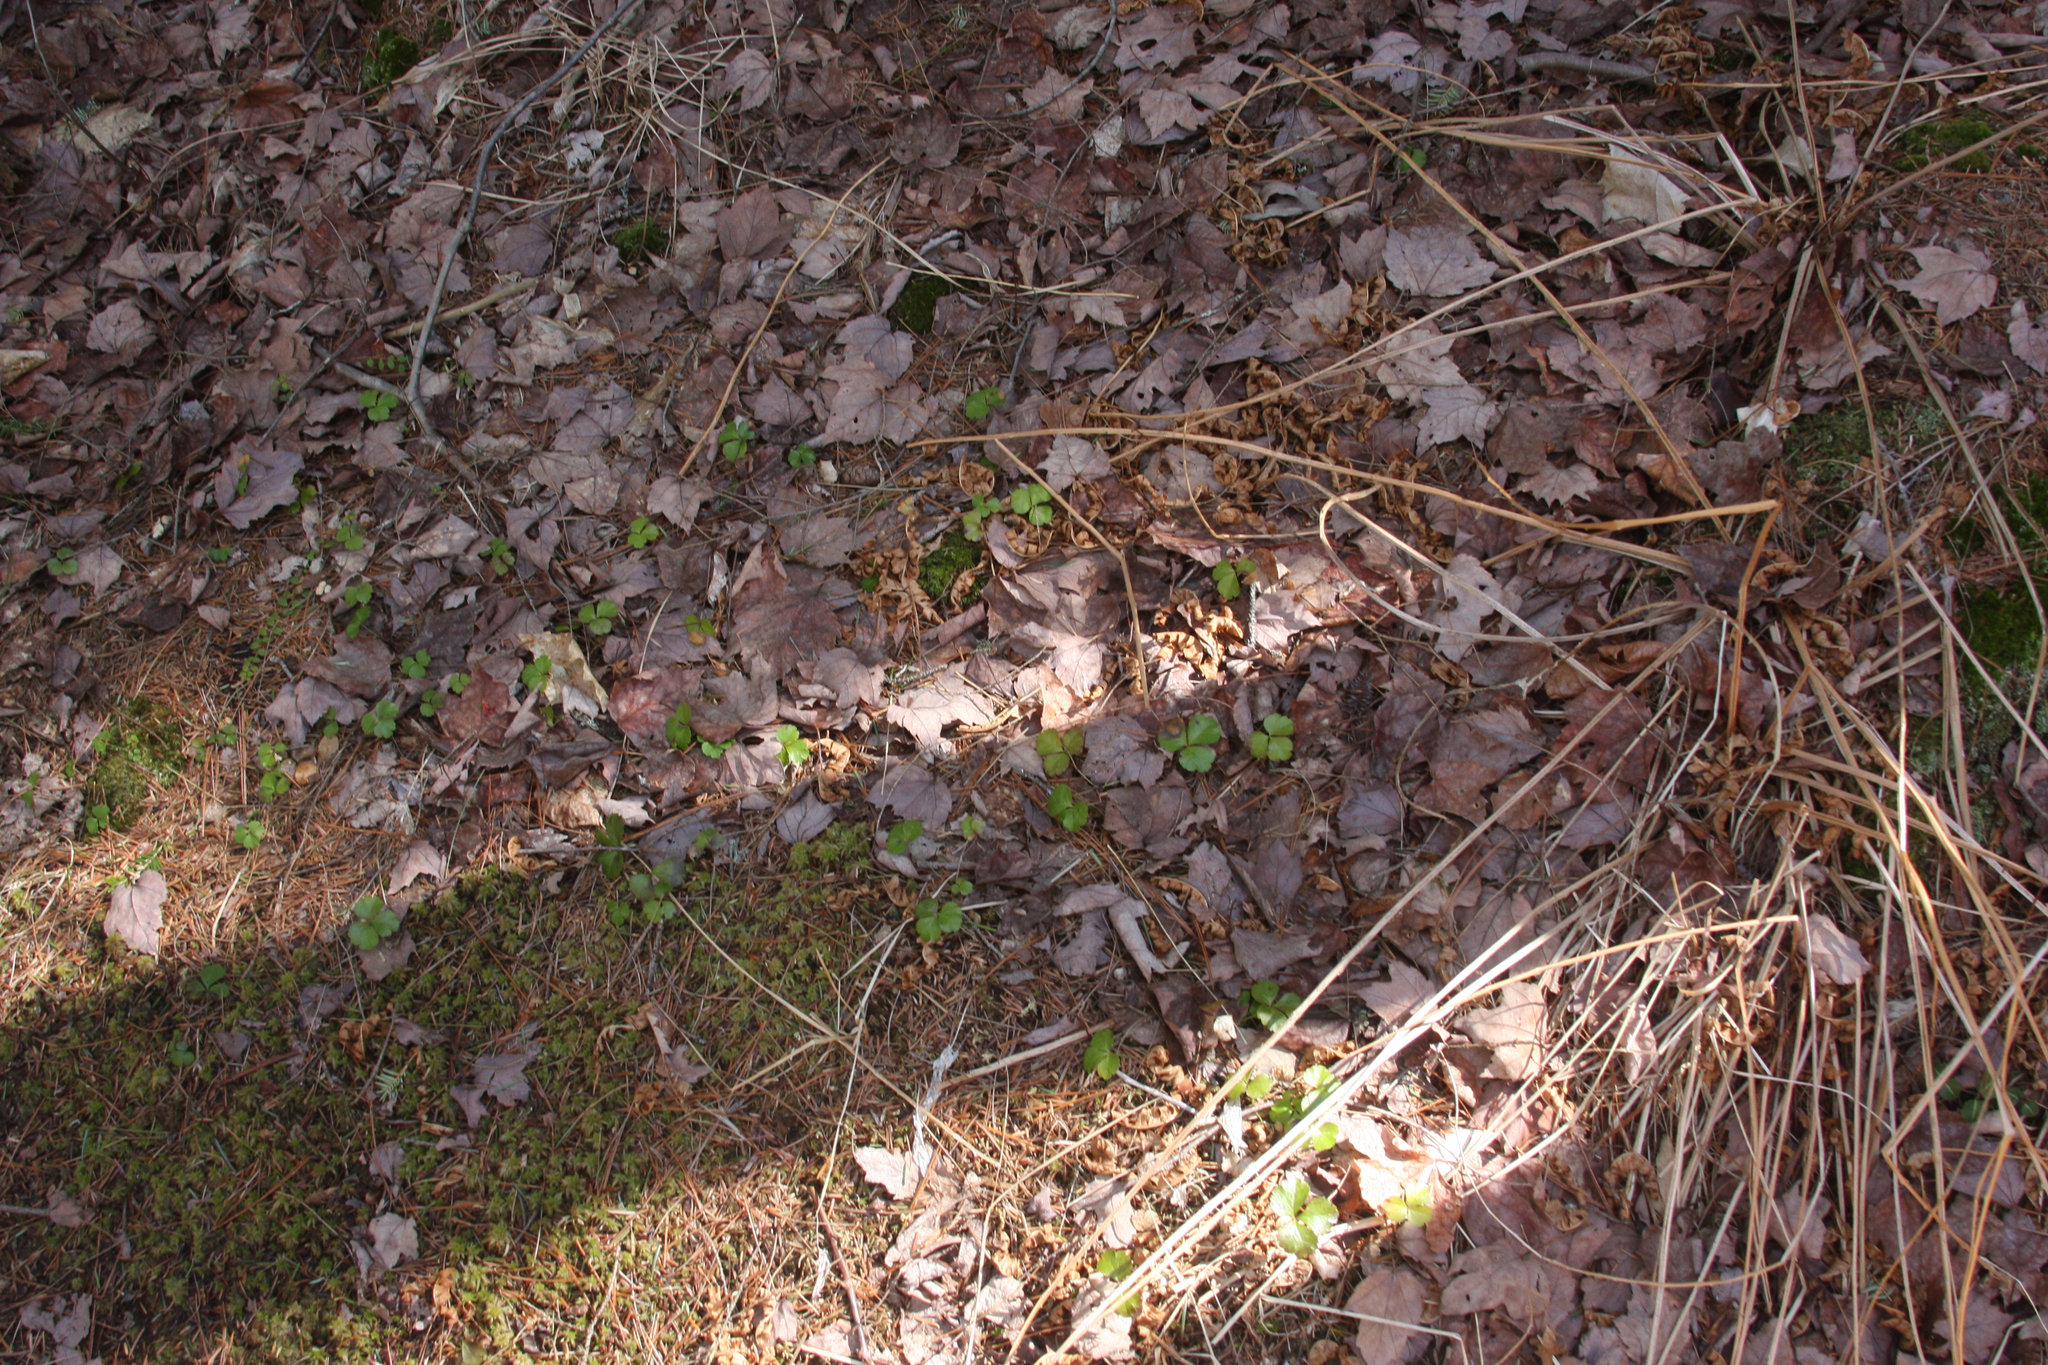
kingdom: Plantae
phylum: Tracheophyta
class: Magnoliopsida
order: Ranunculales
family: Ranunculaceae
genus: Coptis
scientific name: Coptis trifolia
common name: Canker-root
